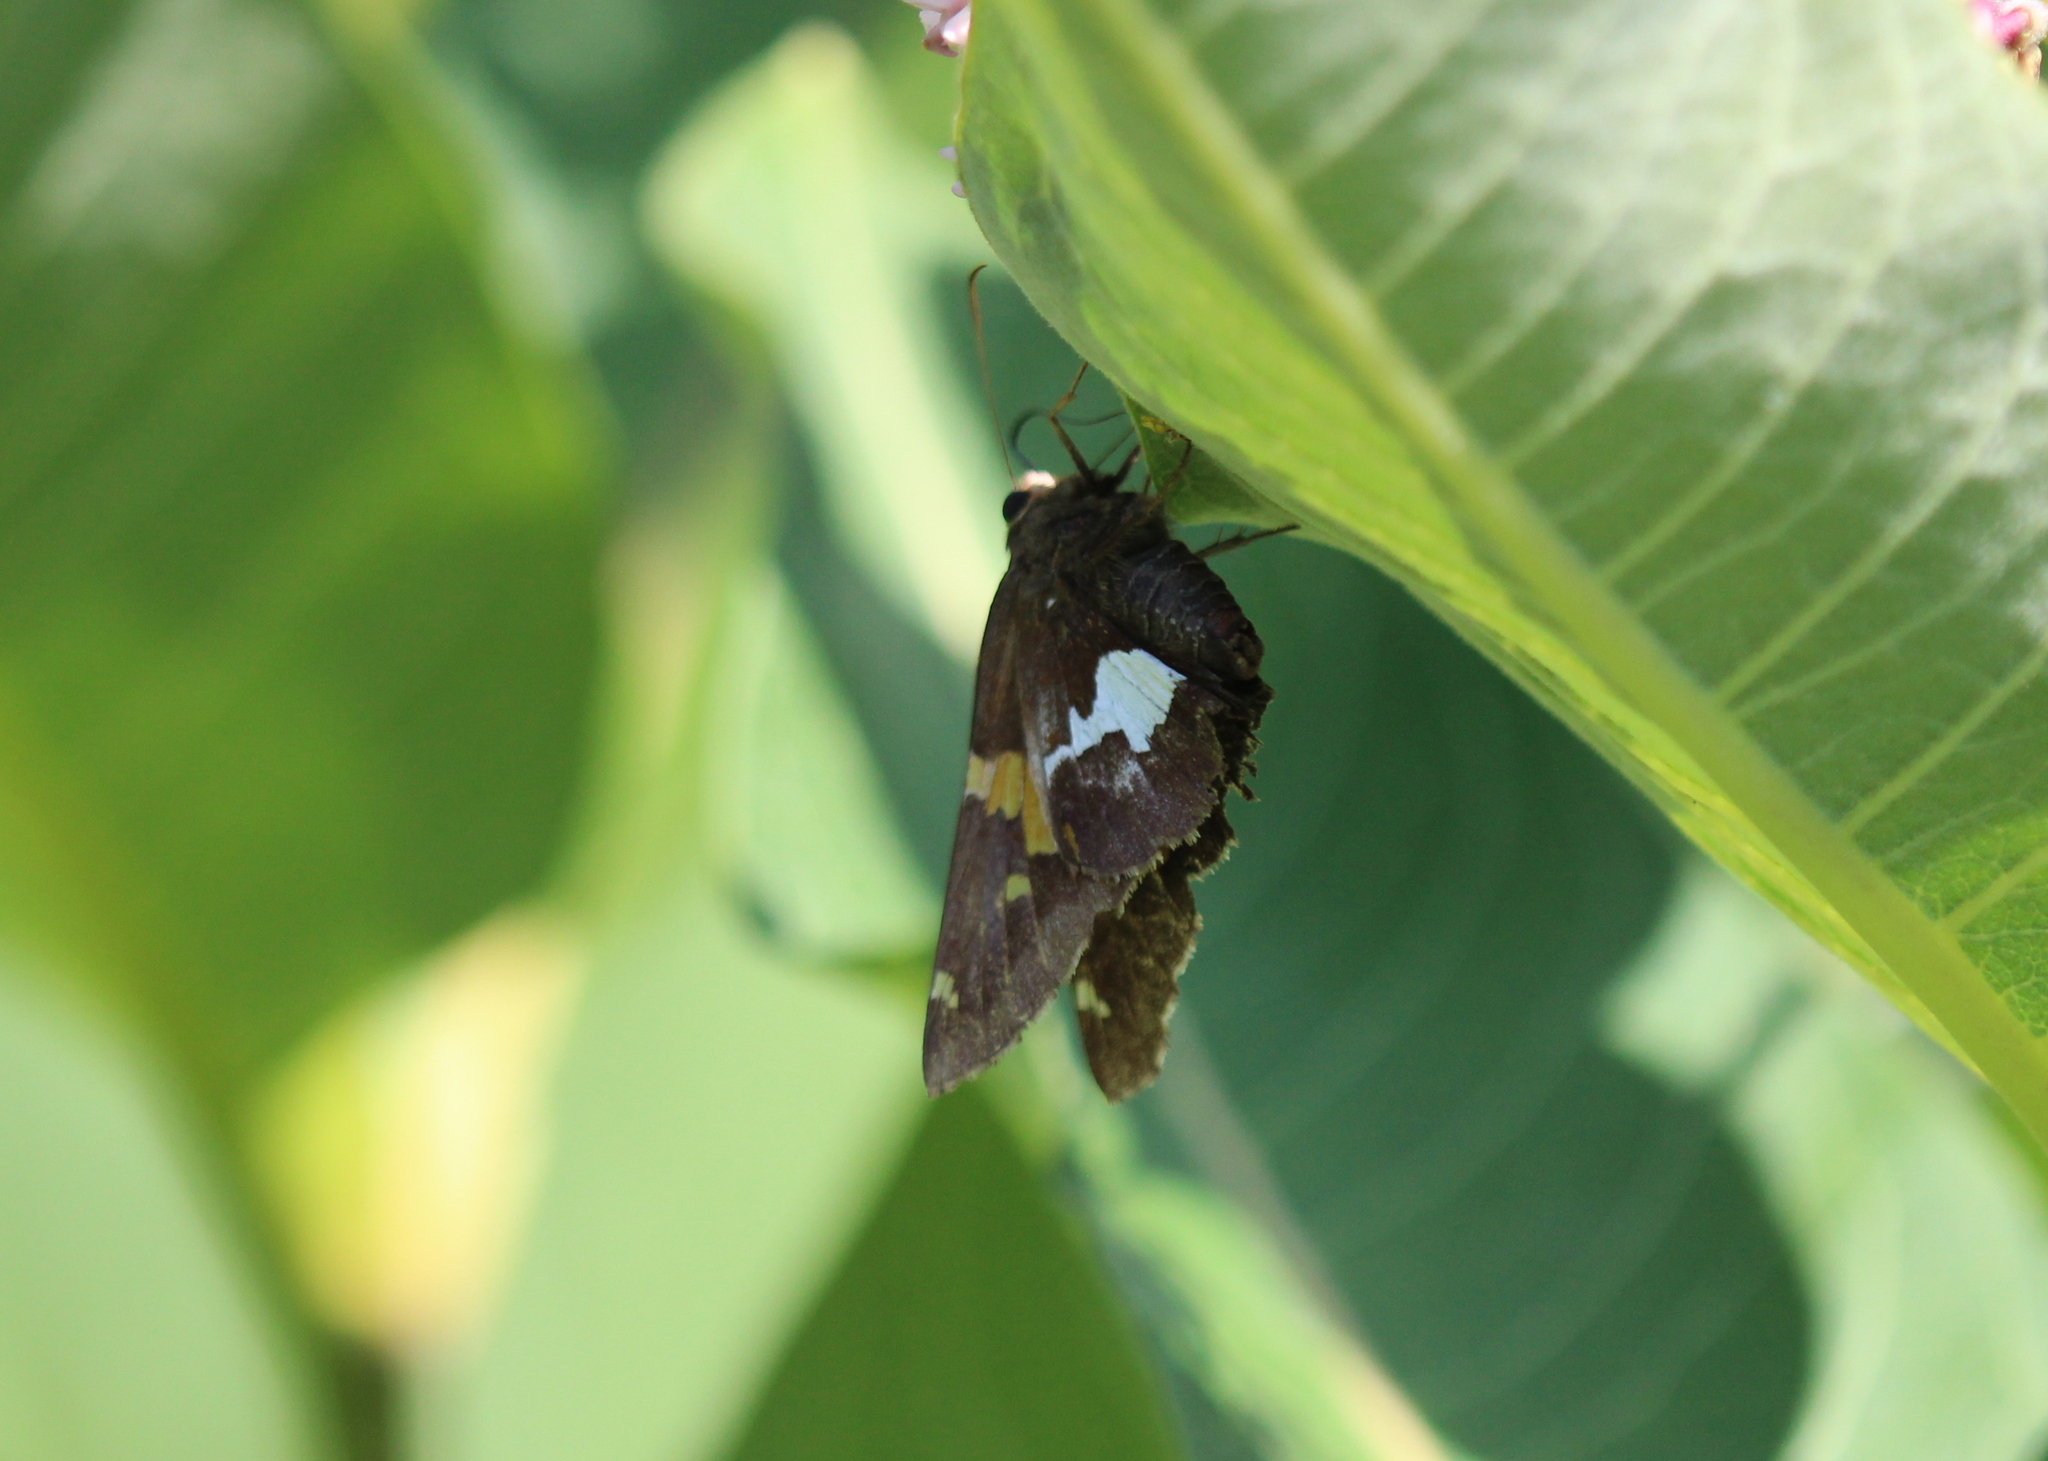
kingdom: Animalia
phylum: Arthropoda
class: Insecta
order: Lepidoptera
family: Hesperiidae
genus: Epargyreus
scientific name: Epargyreus clarus
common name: Silver-spotted skipper
